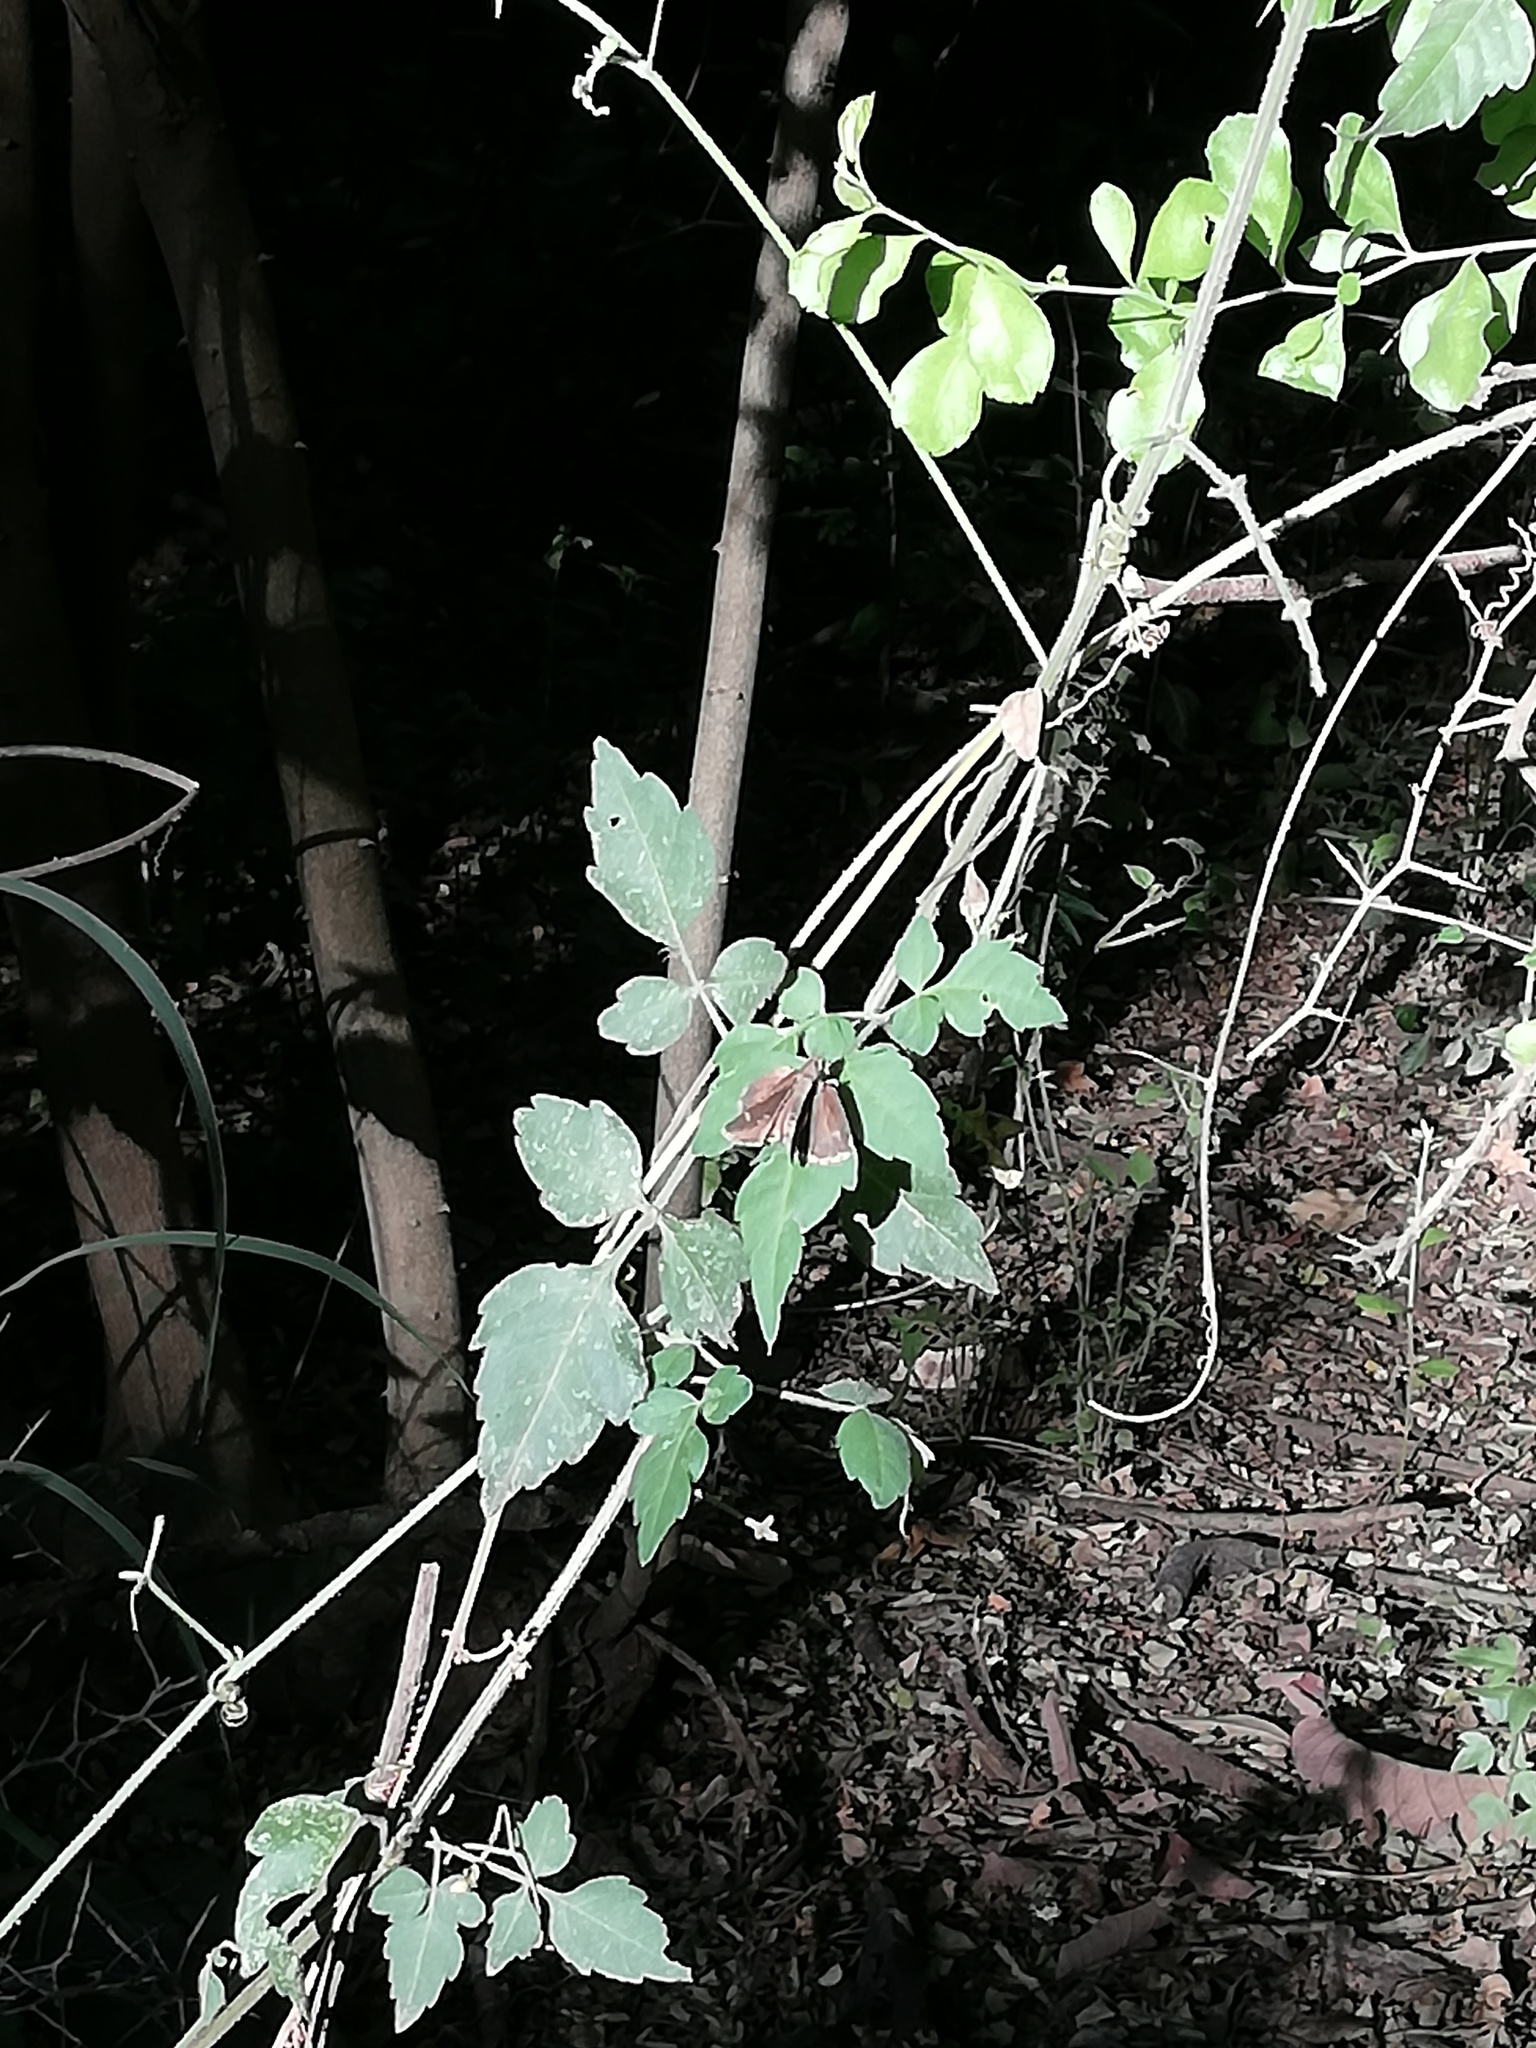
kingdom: Plantae
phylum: Tracheophyta
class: Magnoliopsida
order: Sapindales
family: Sapindaceae
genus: Cardiospermum
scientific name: Cardiospermum halicacabum
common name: Balloon vine
